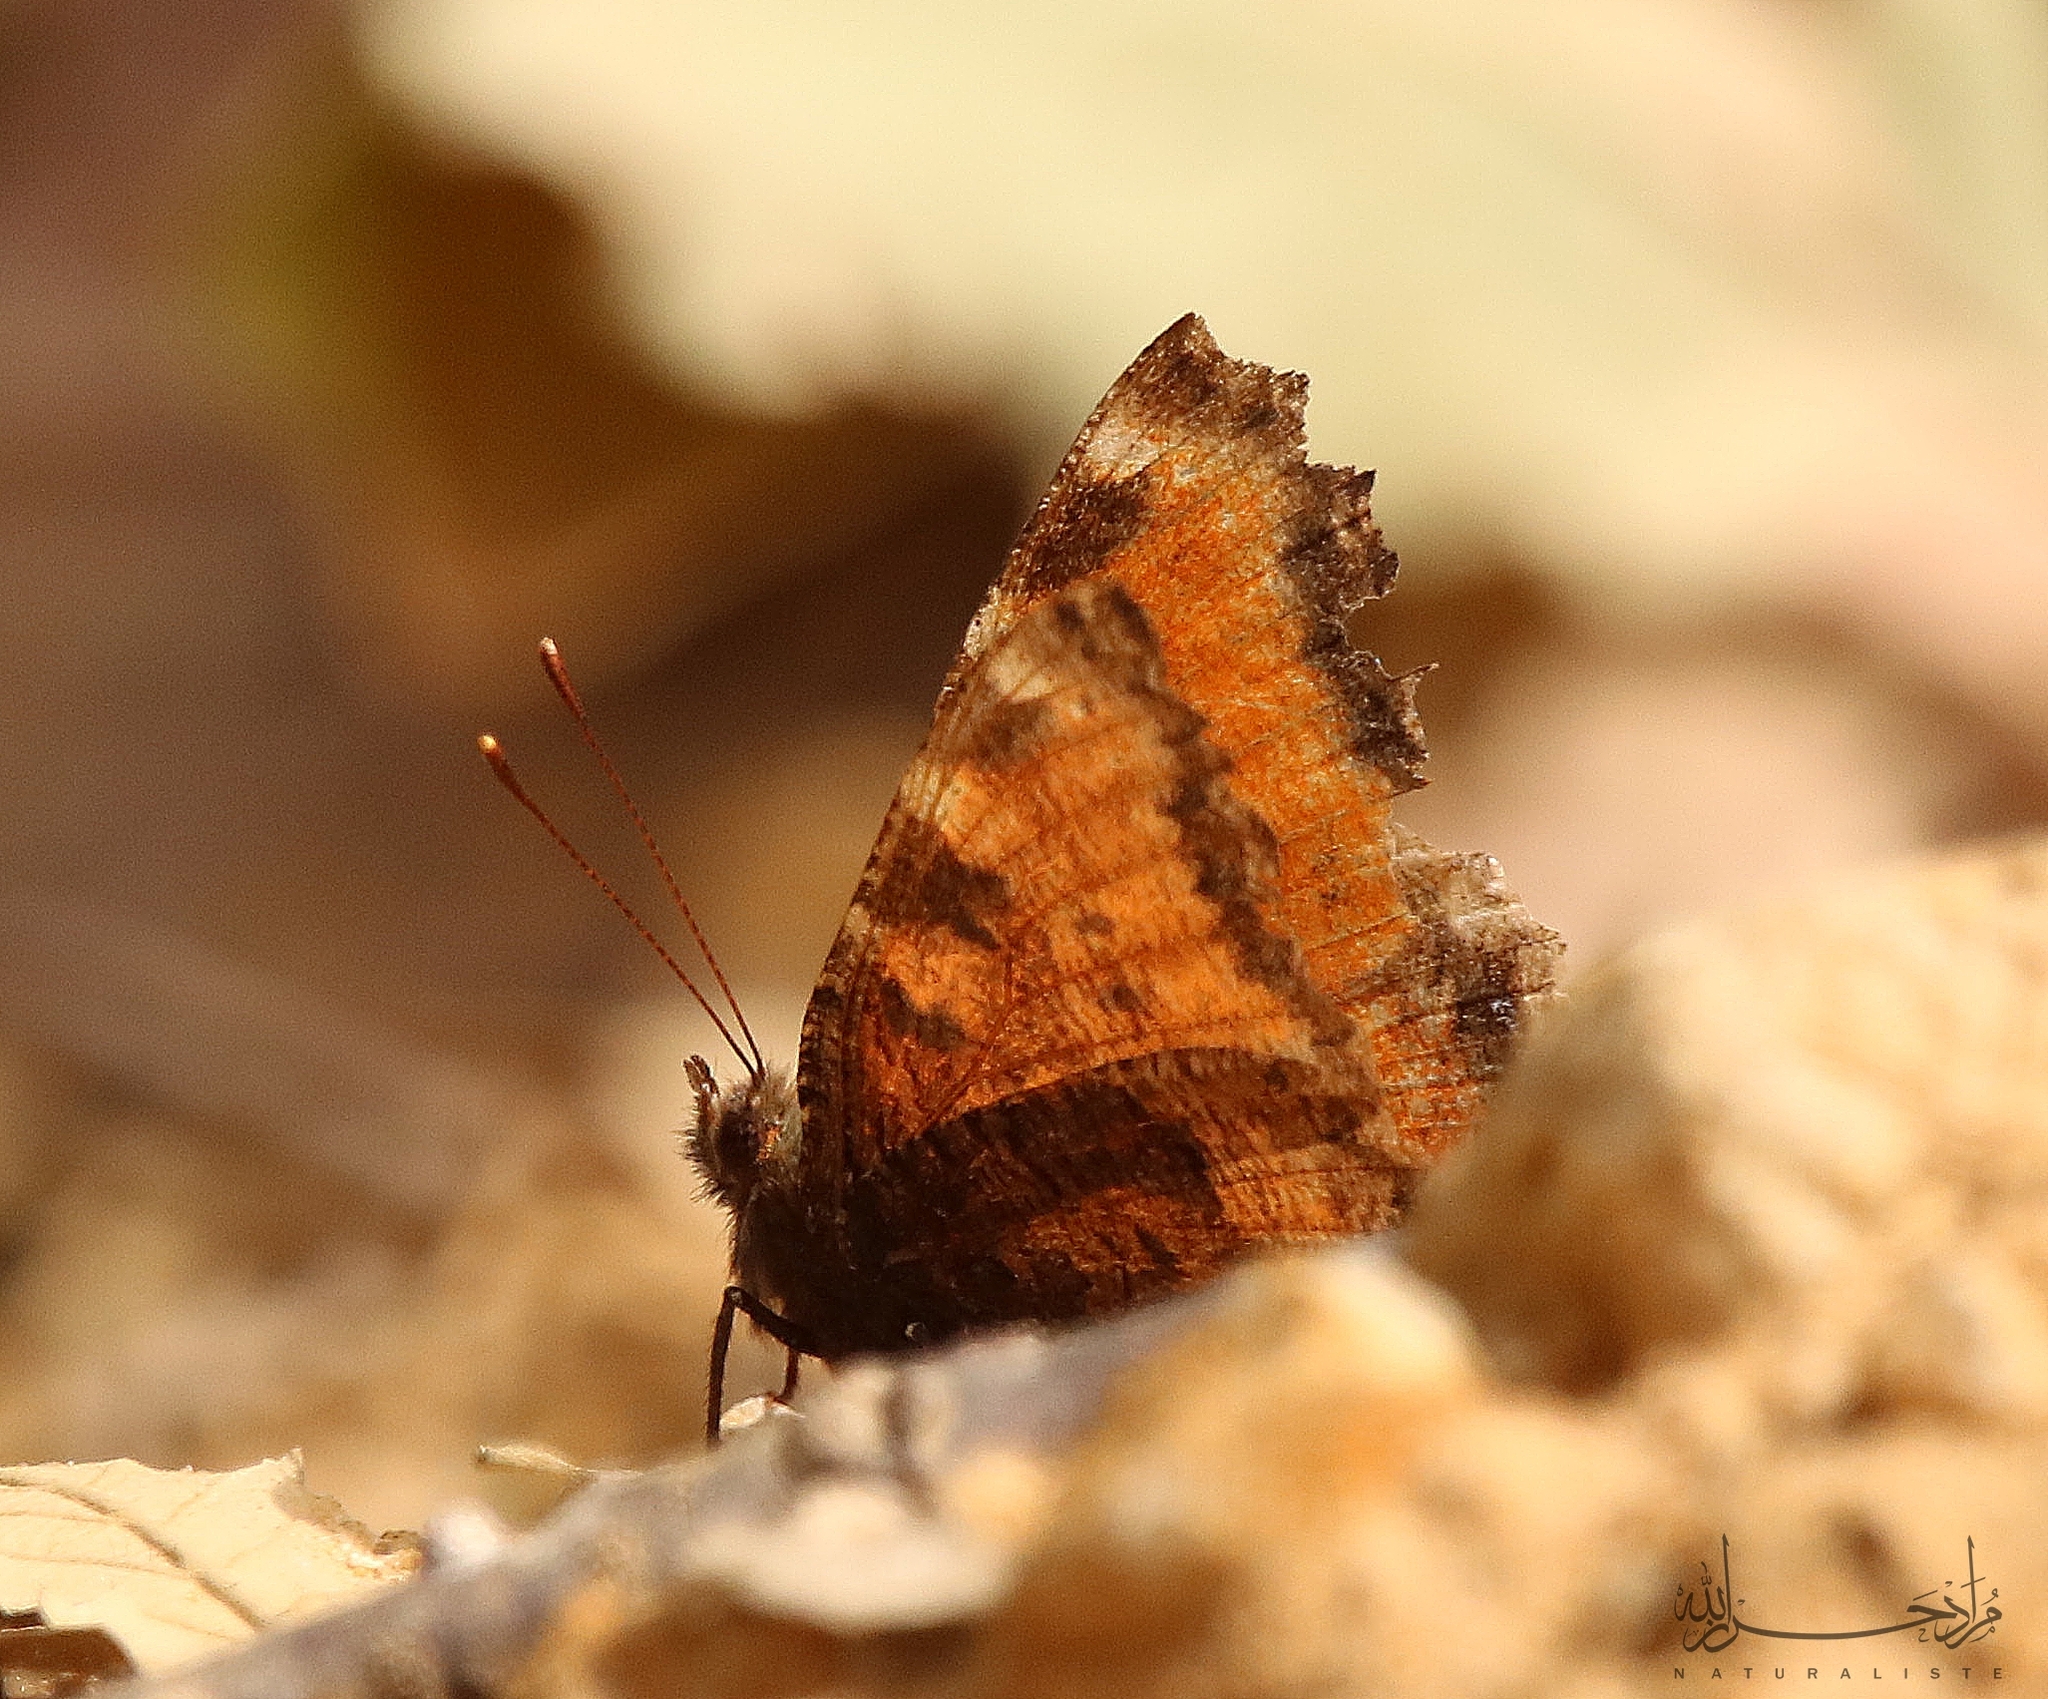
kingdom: Animalia
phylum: Arthropoda
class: Insecta
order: Lepidoptera
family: Nymphalidae
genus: Nymphalis
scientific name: Nymphalis polychloros
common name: Large tortoiseshell
